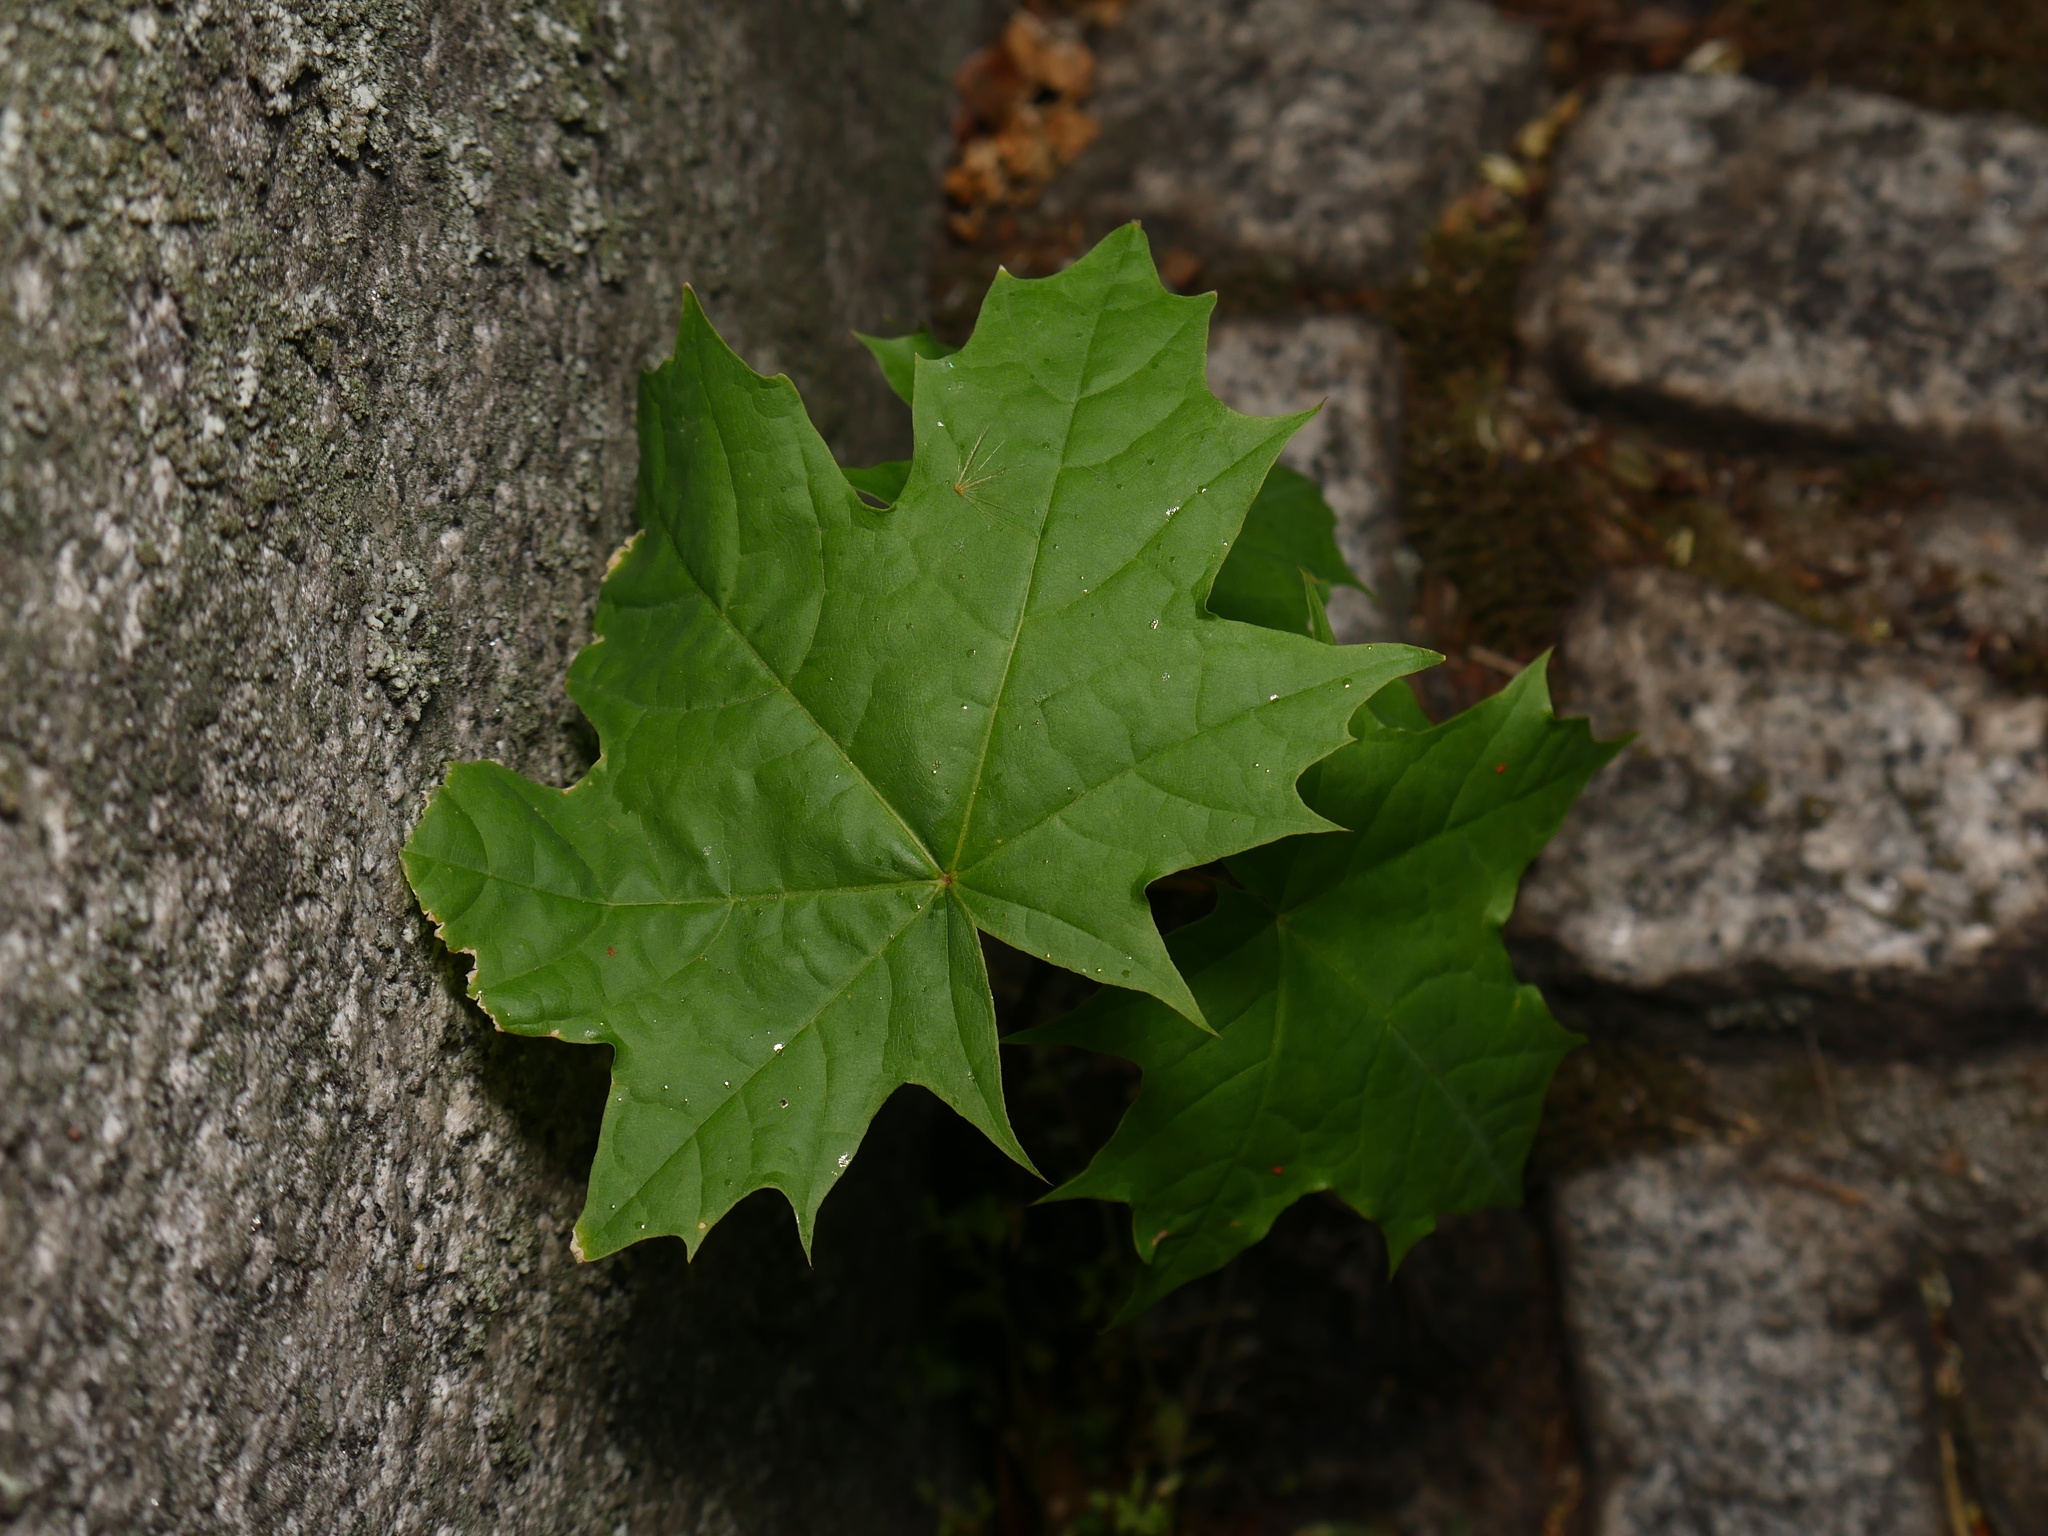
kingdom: Plantae
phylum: Tracheophyta
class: Magnoliopsida
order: Sapindales
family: Sapindaceae
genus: Acer
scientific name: Acer platanoides
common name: Norway maple
